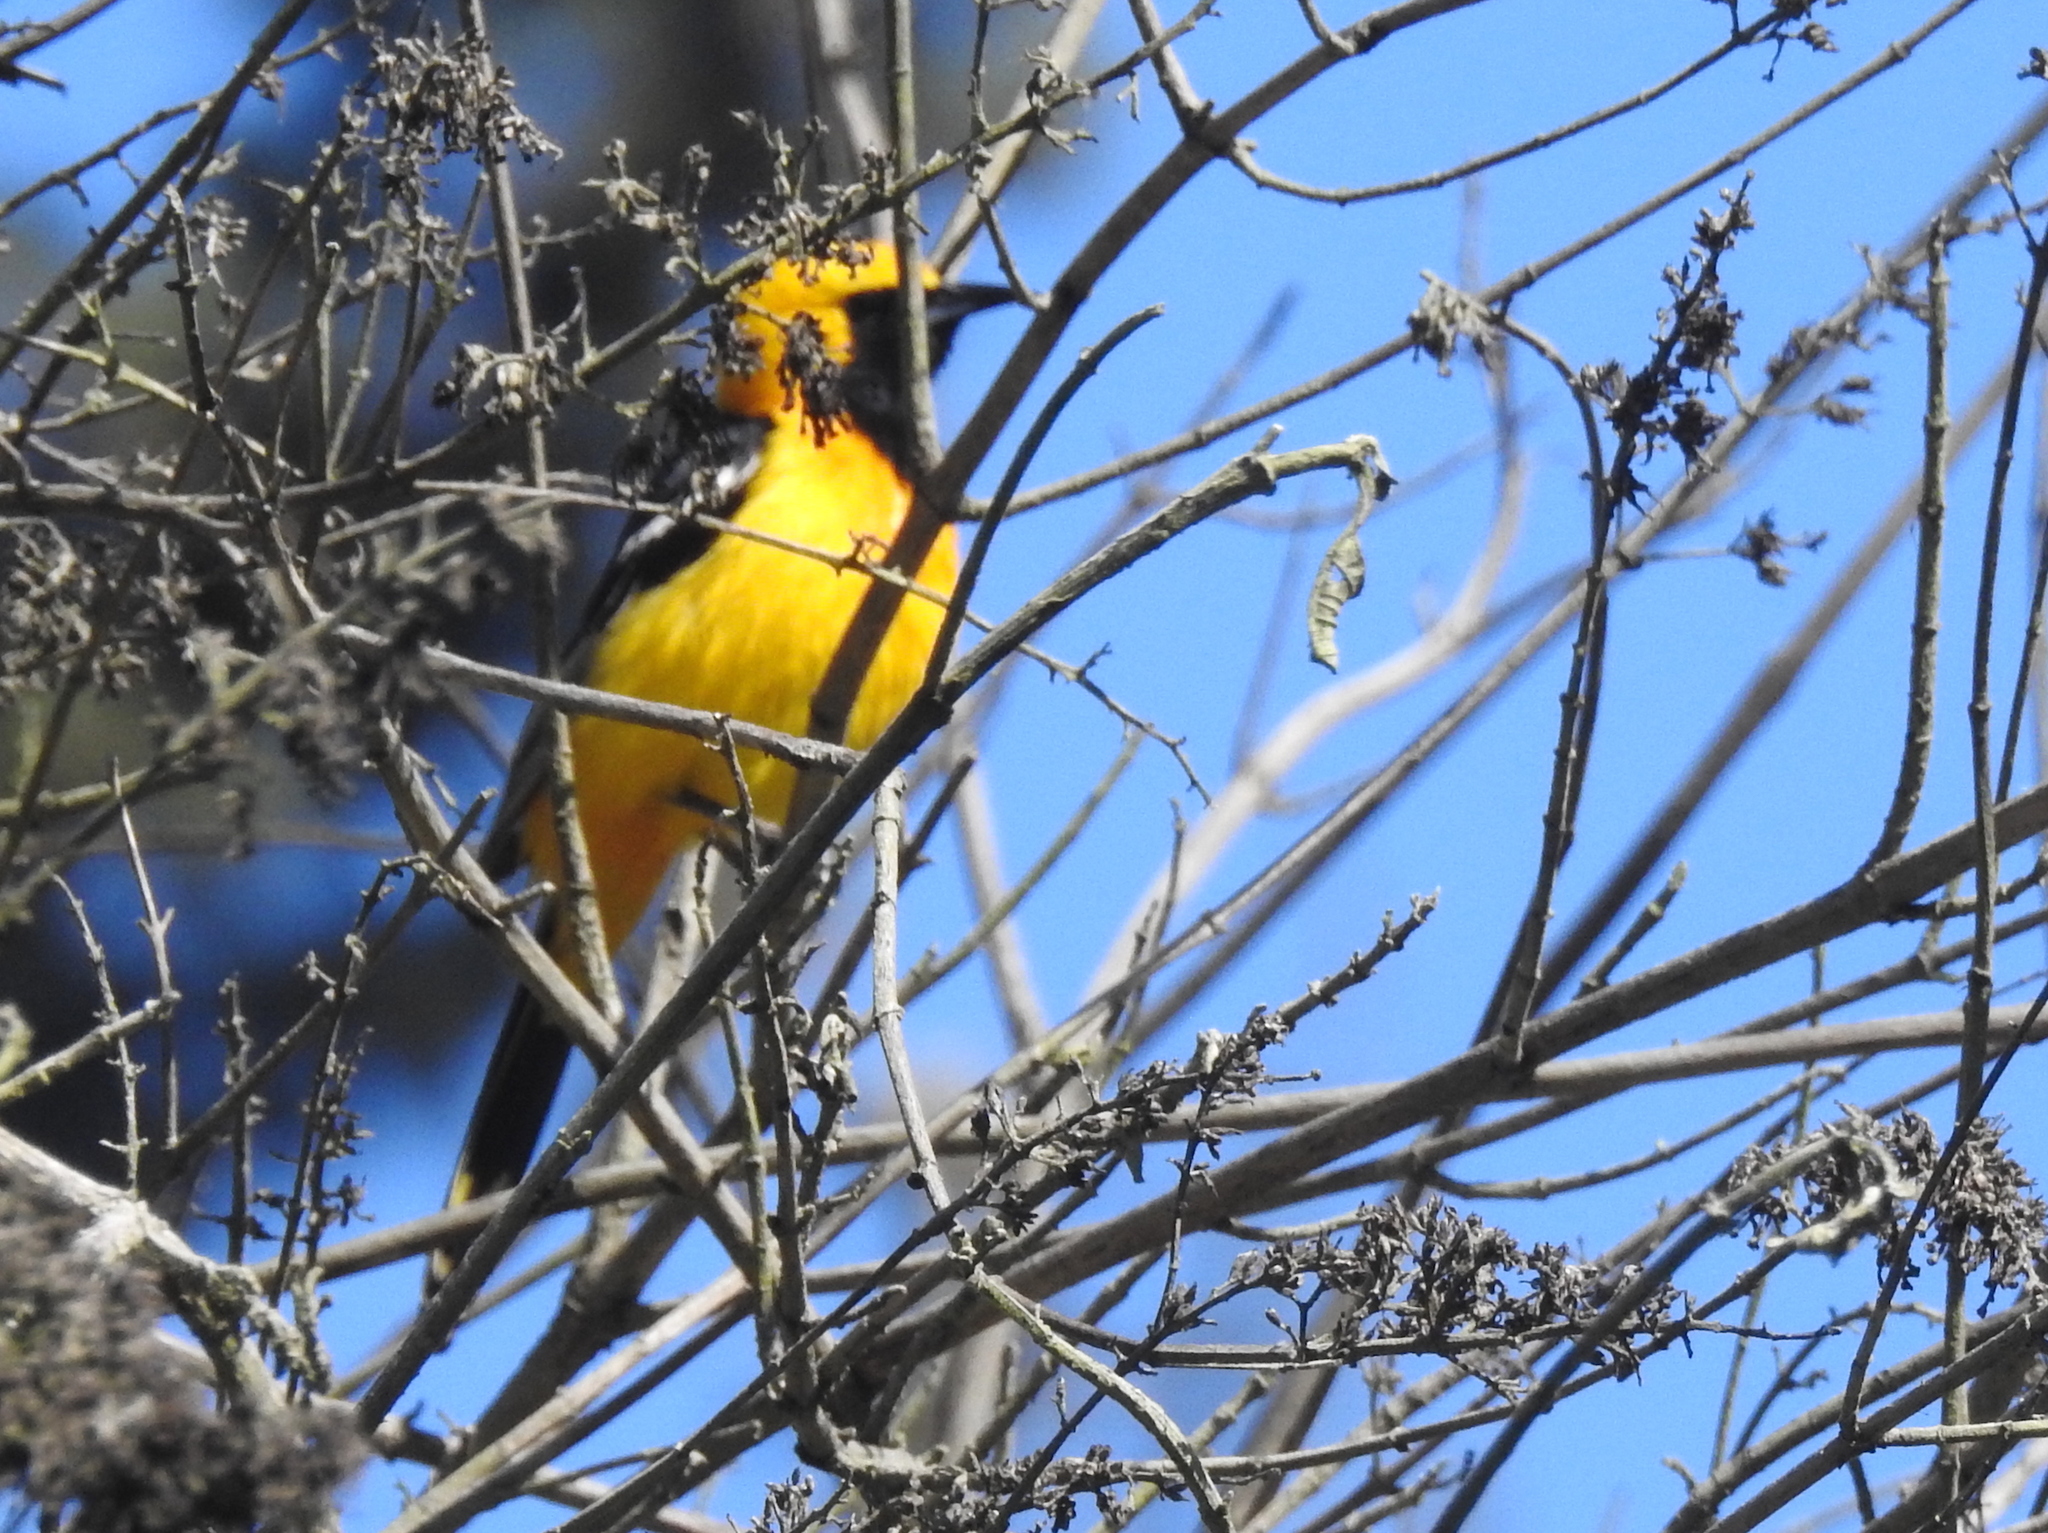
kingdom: Animalia
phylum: Chordata
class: Aves
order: Passeriformes
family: Icteridae
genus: Icterus
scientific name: Icterus cucullatus
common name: Hooded oriole
